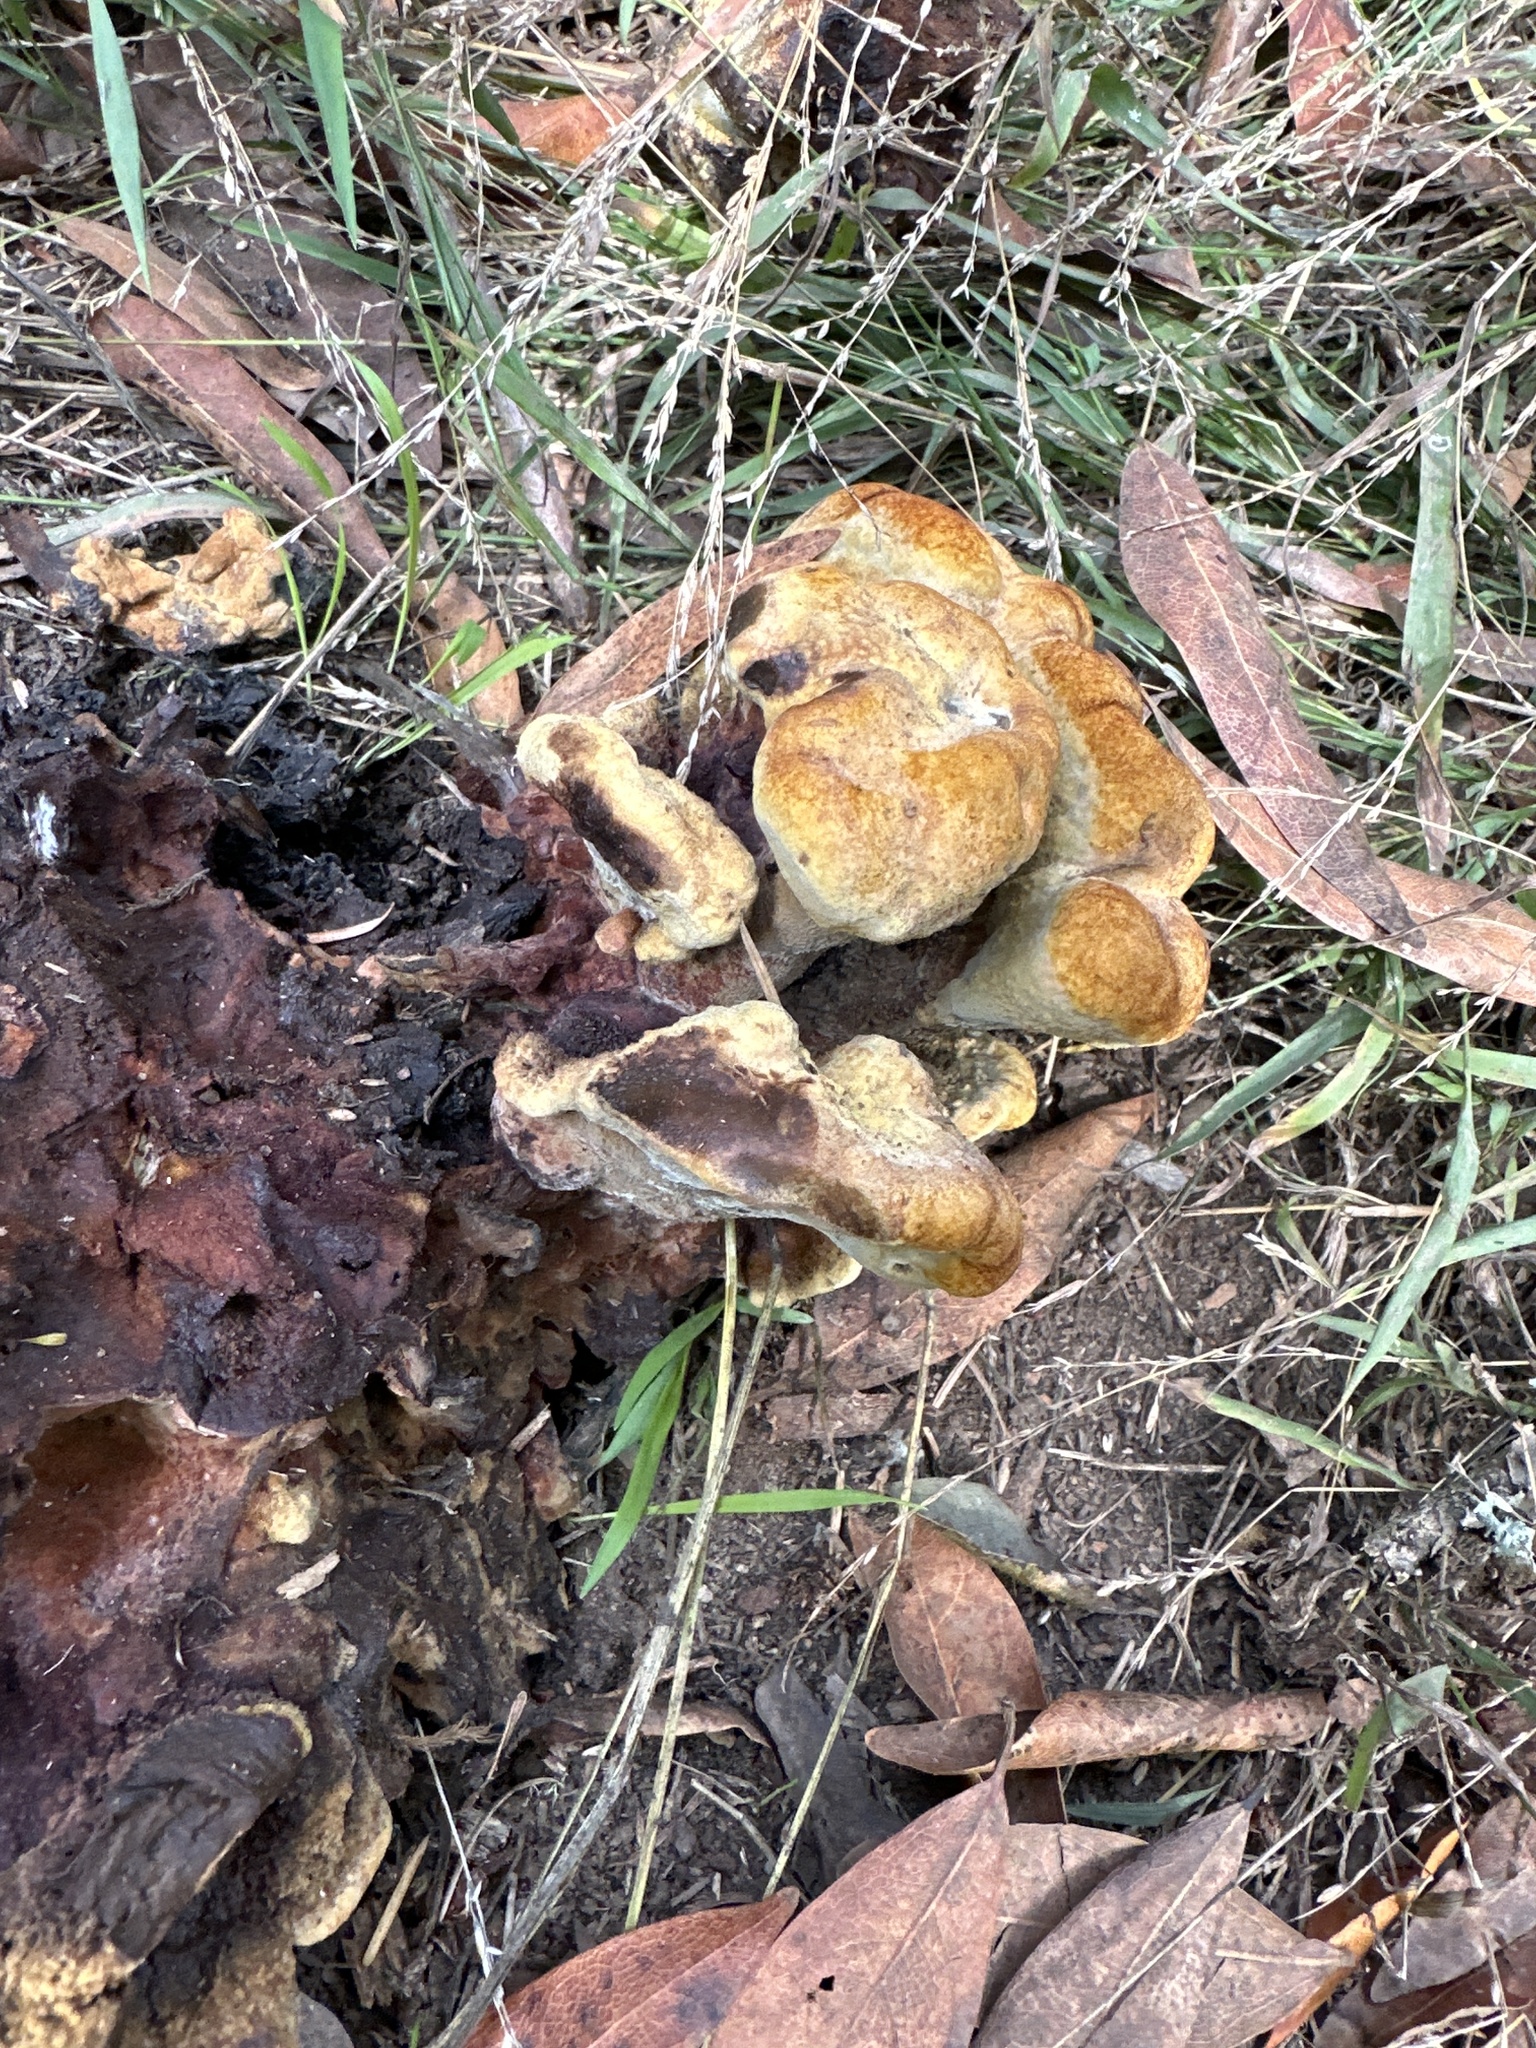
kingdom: Fungi
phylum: Basidiomycota
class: Agaricomycetes
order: Polyporales
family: Laetiporaceae
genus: Phaeolus
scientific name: Phaeolus schweinitzii
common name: Dyer's mazegill
